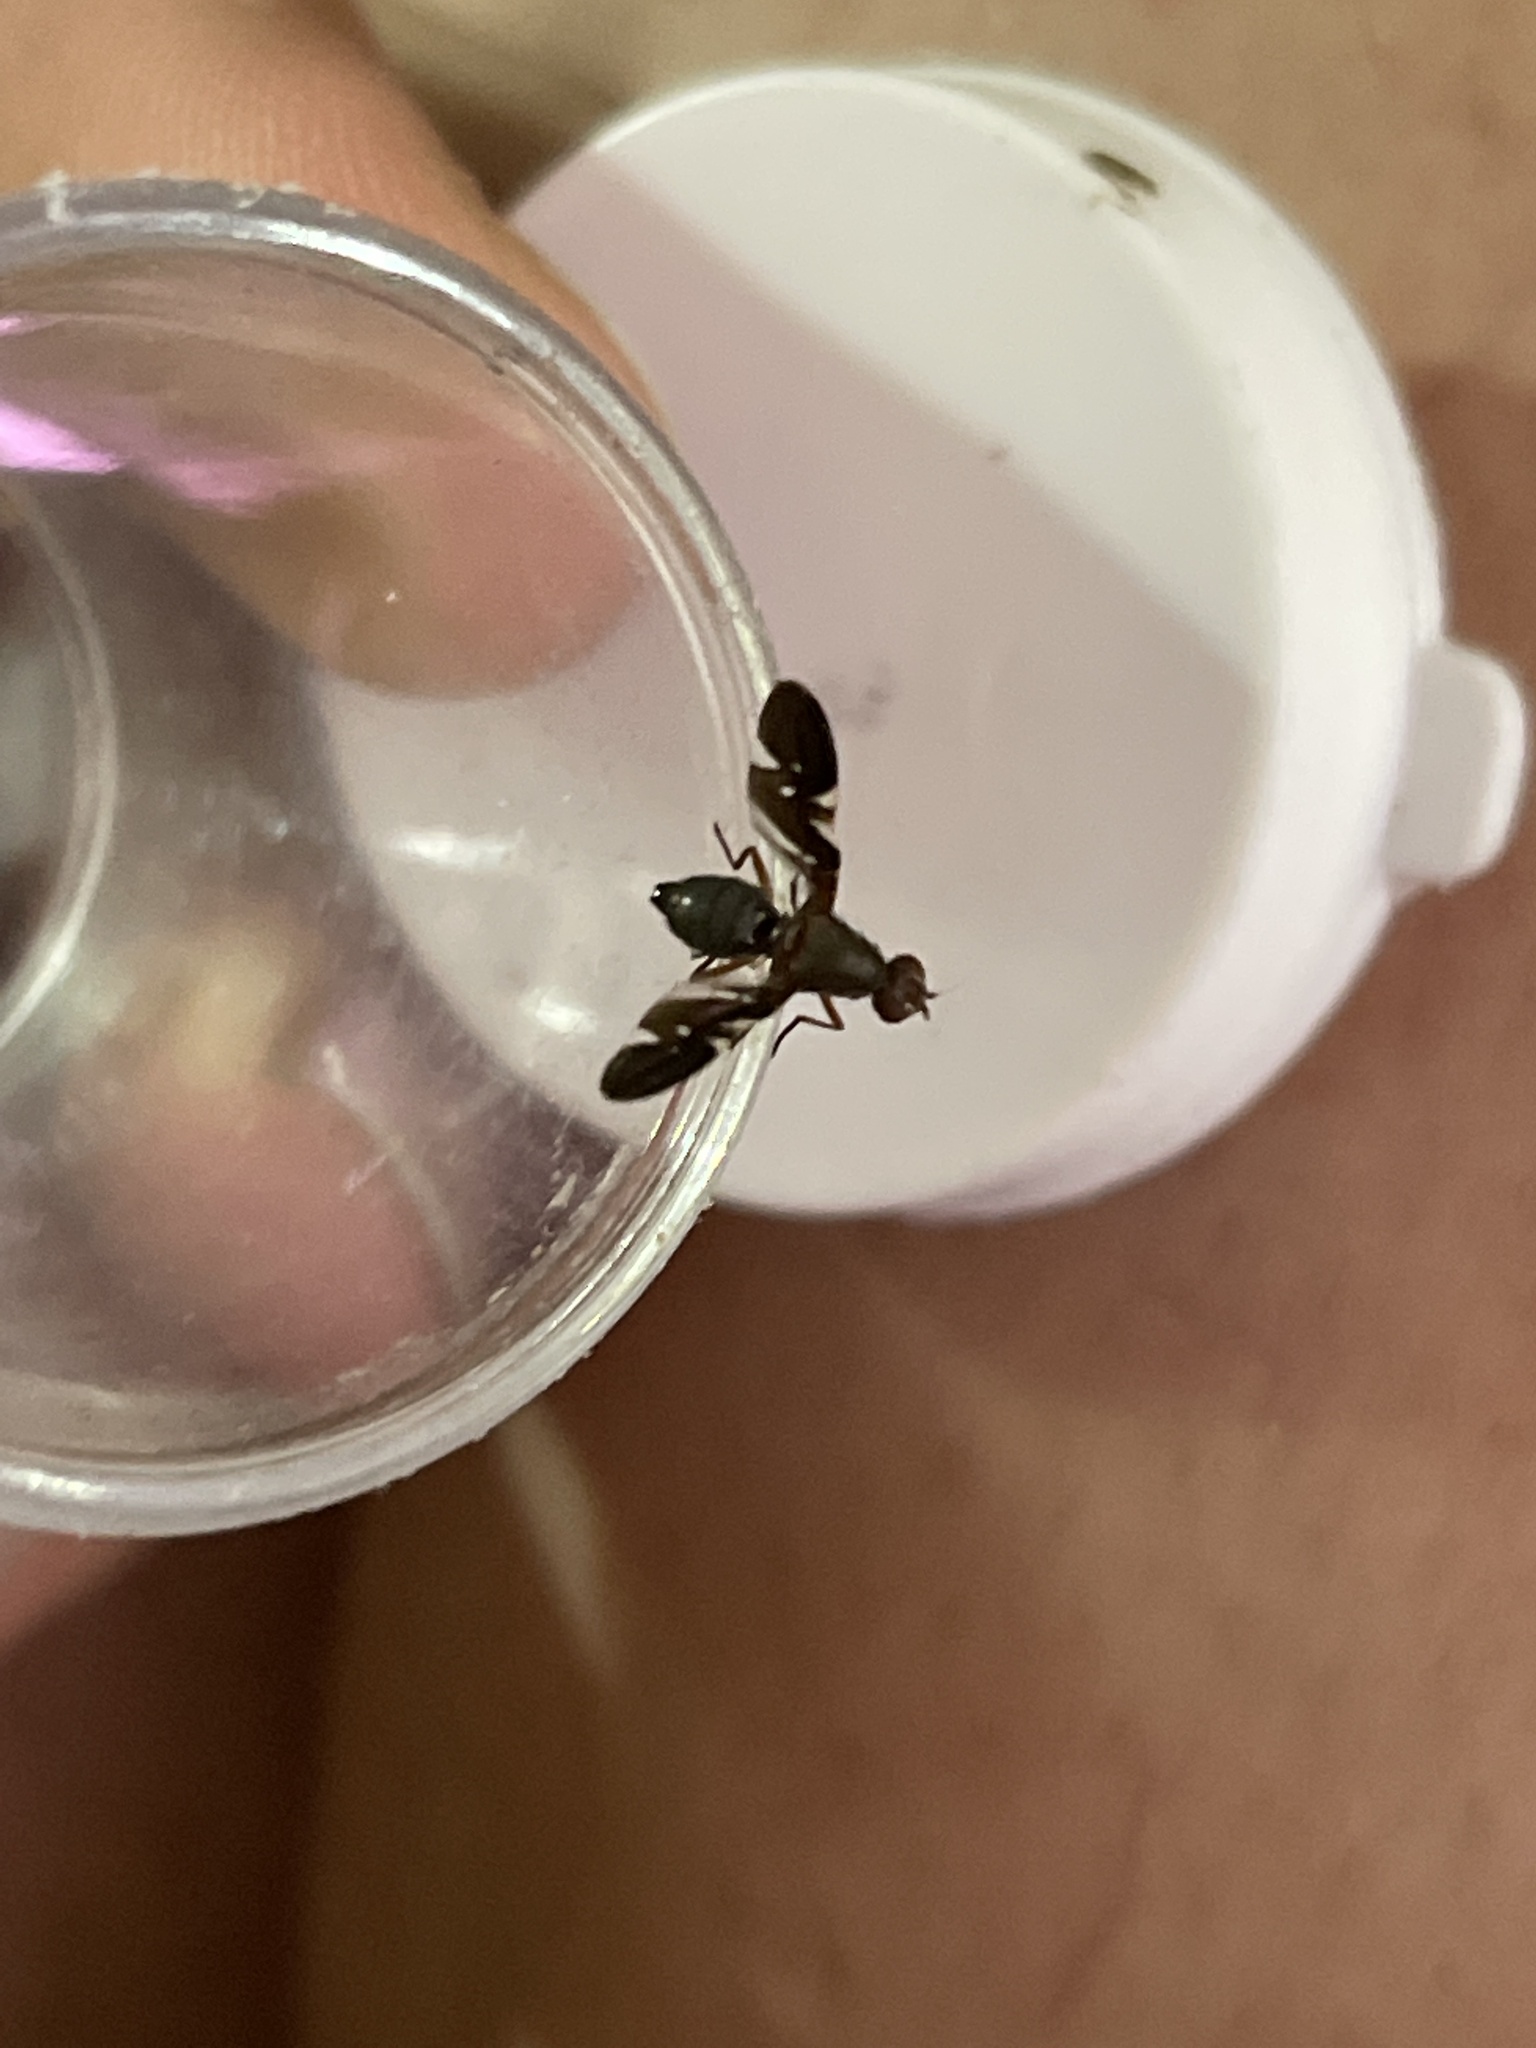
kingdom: Animalia
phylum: Arthropoda
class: Insecta
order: Diptera
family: Ulidiidae
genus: Delphinia
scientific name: Delphinia picta
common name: Common picture-winged fly
